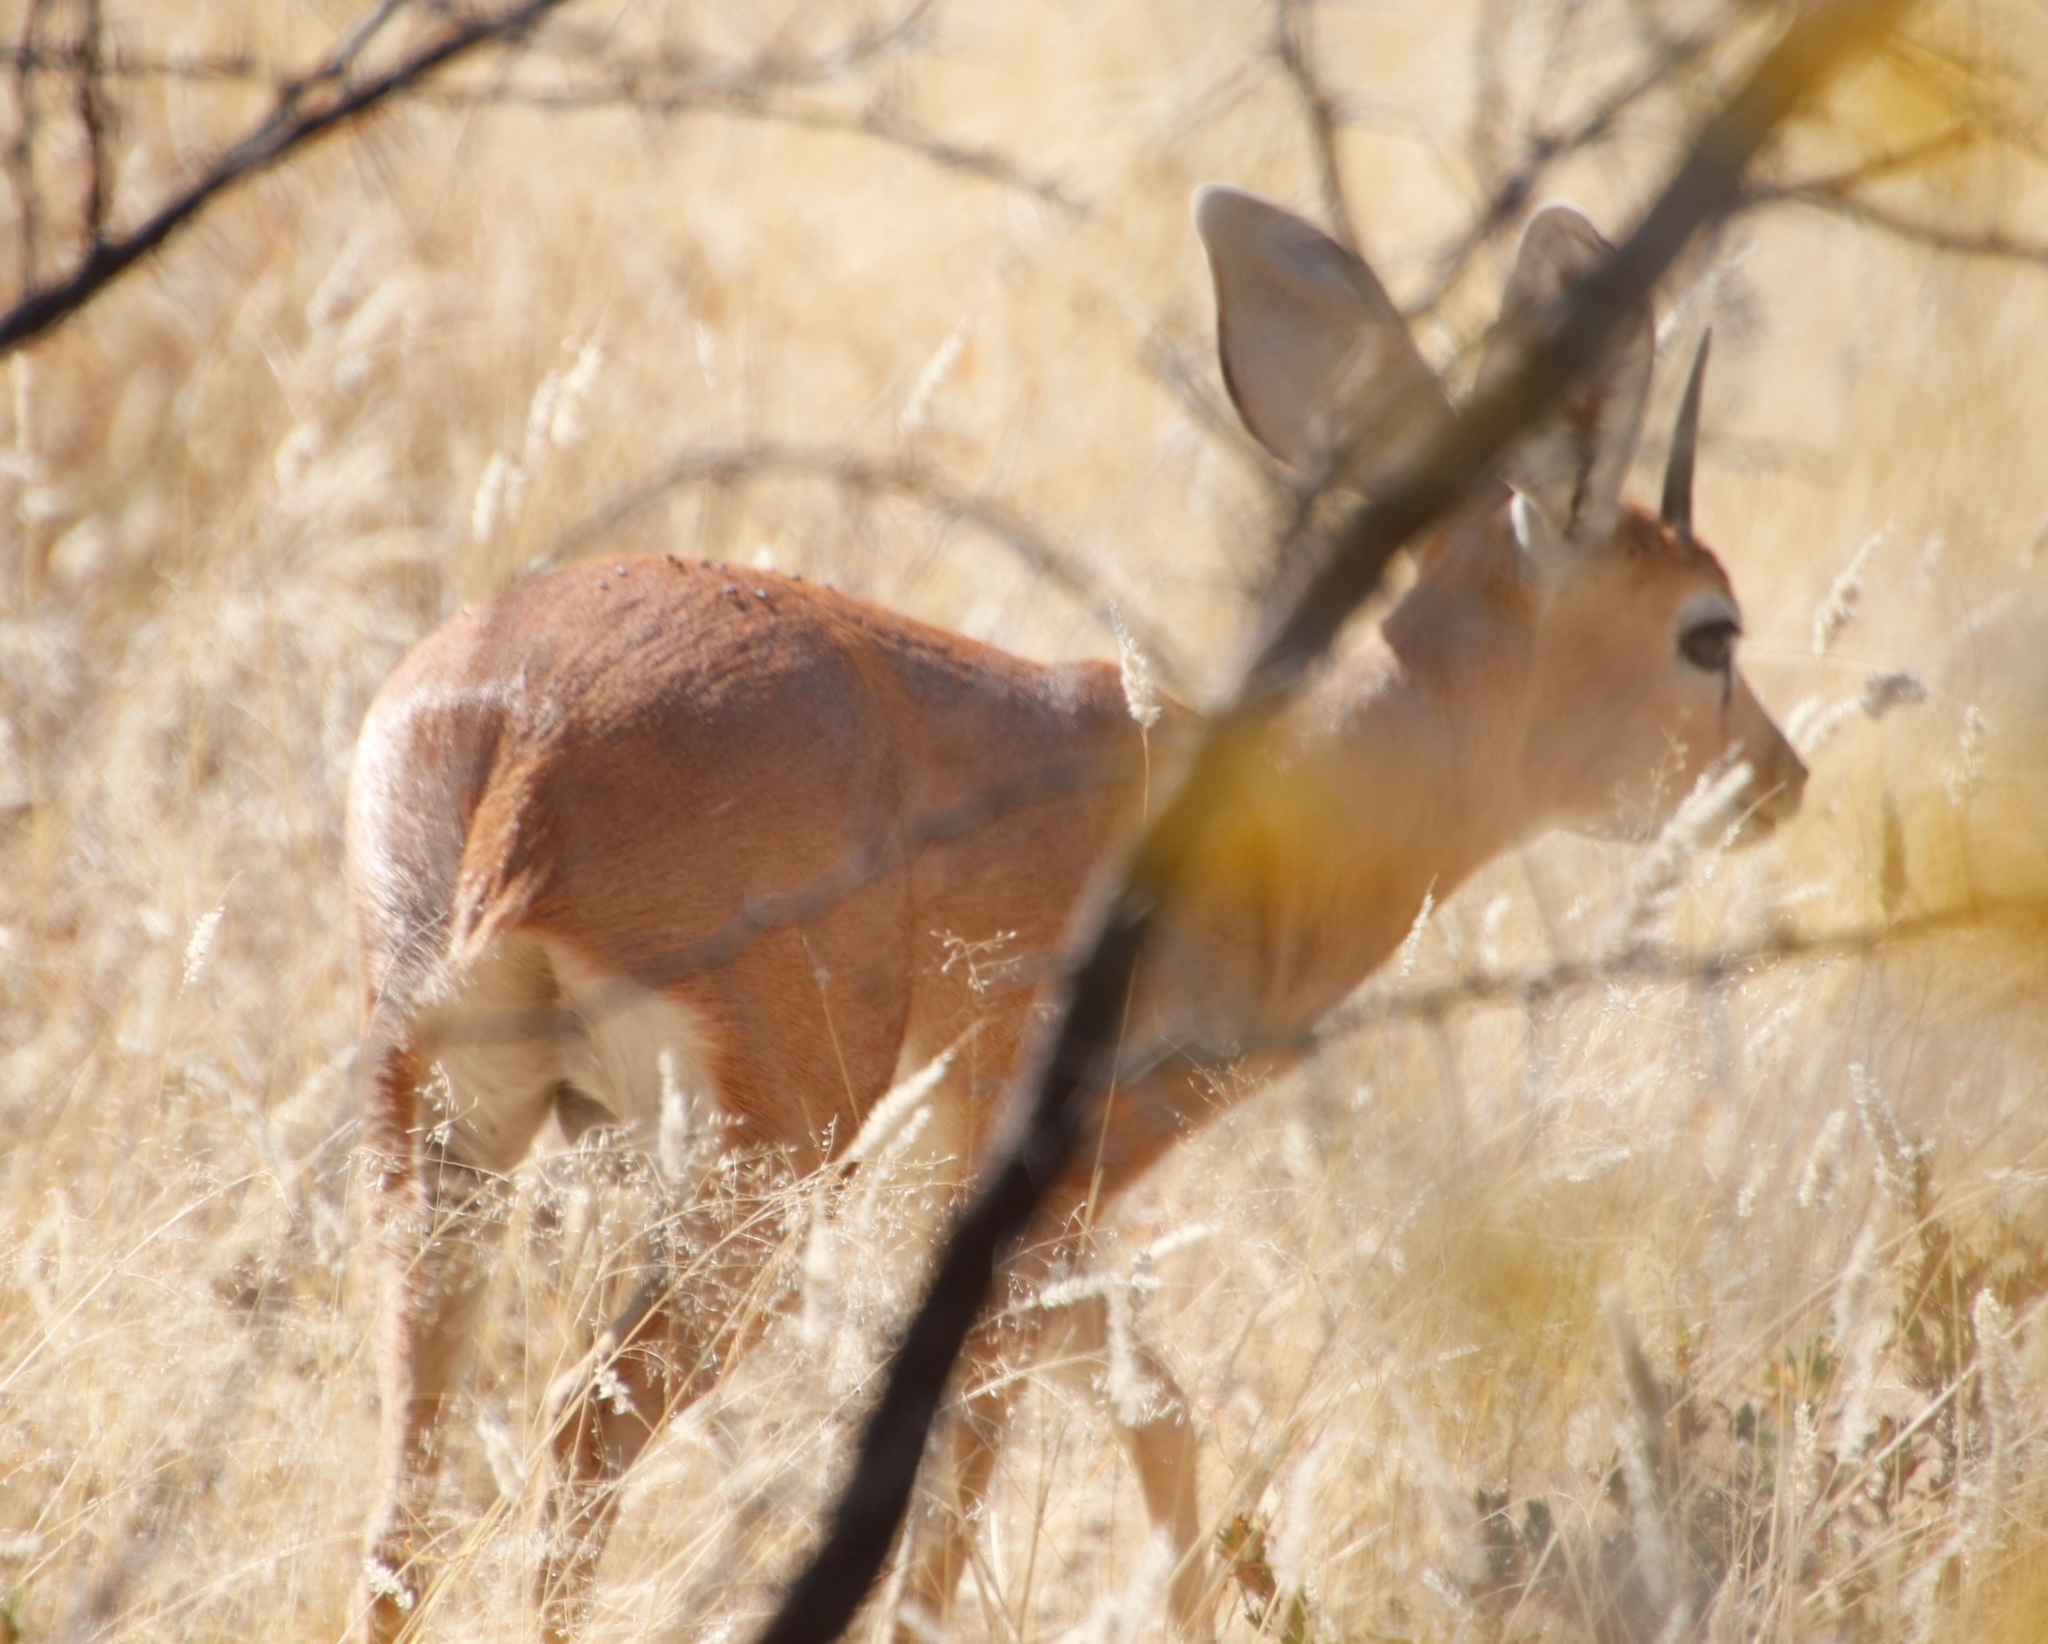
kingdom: Animalia
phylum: Chordata
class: Mammalia
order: Artiodactyla
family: Bovidae
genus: Raphicerus
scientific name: Raphicerus campestris
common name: Steenbok
